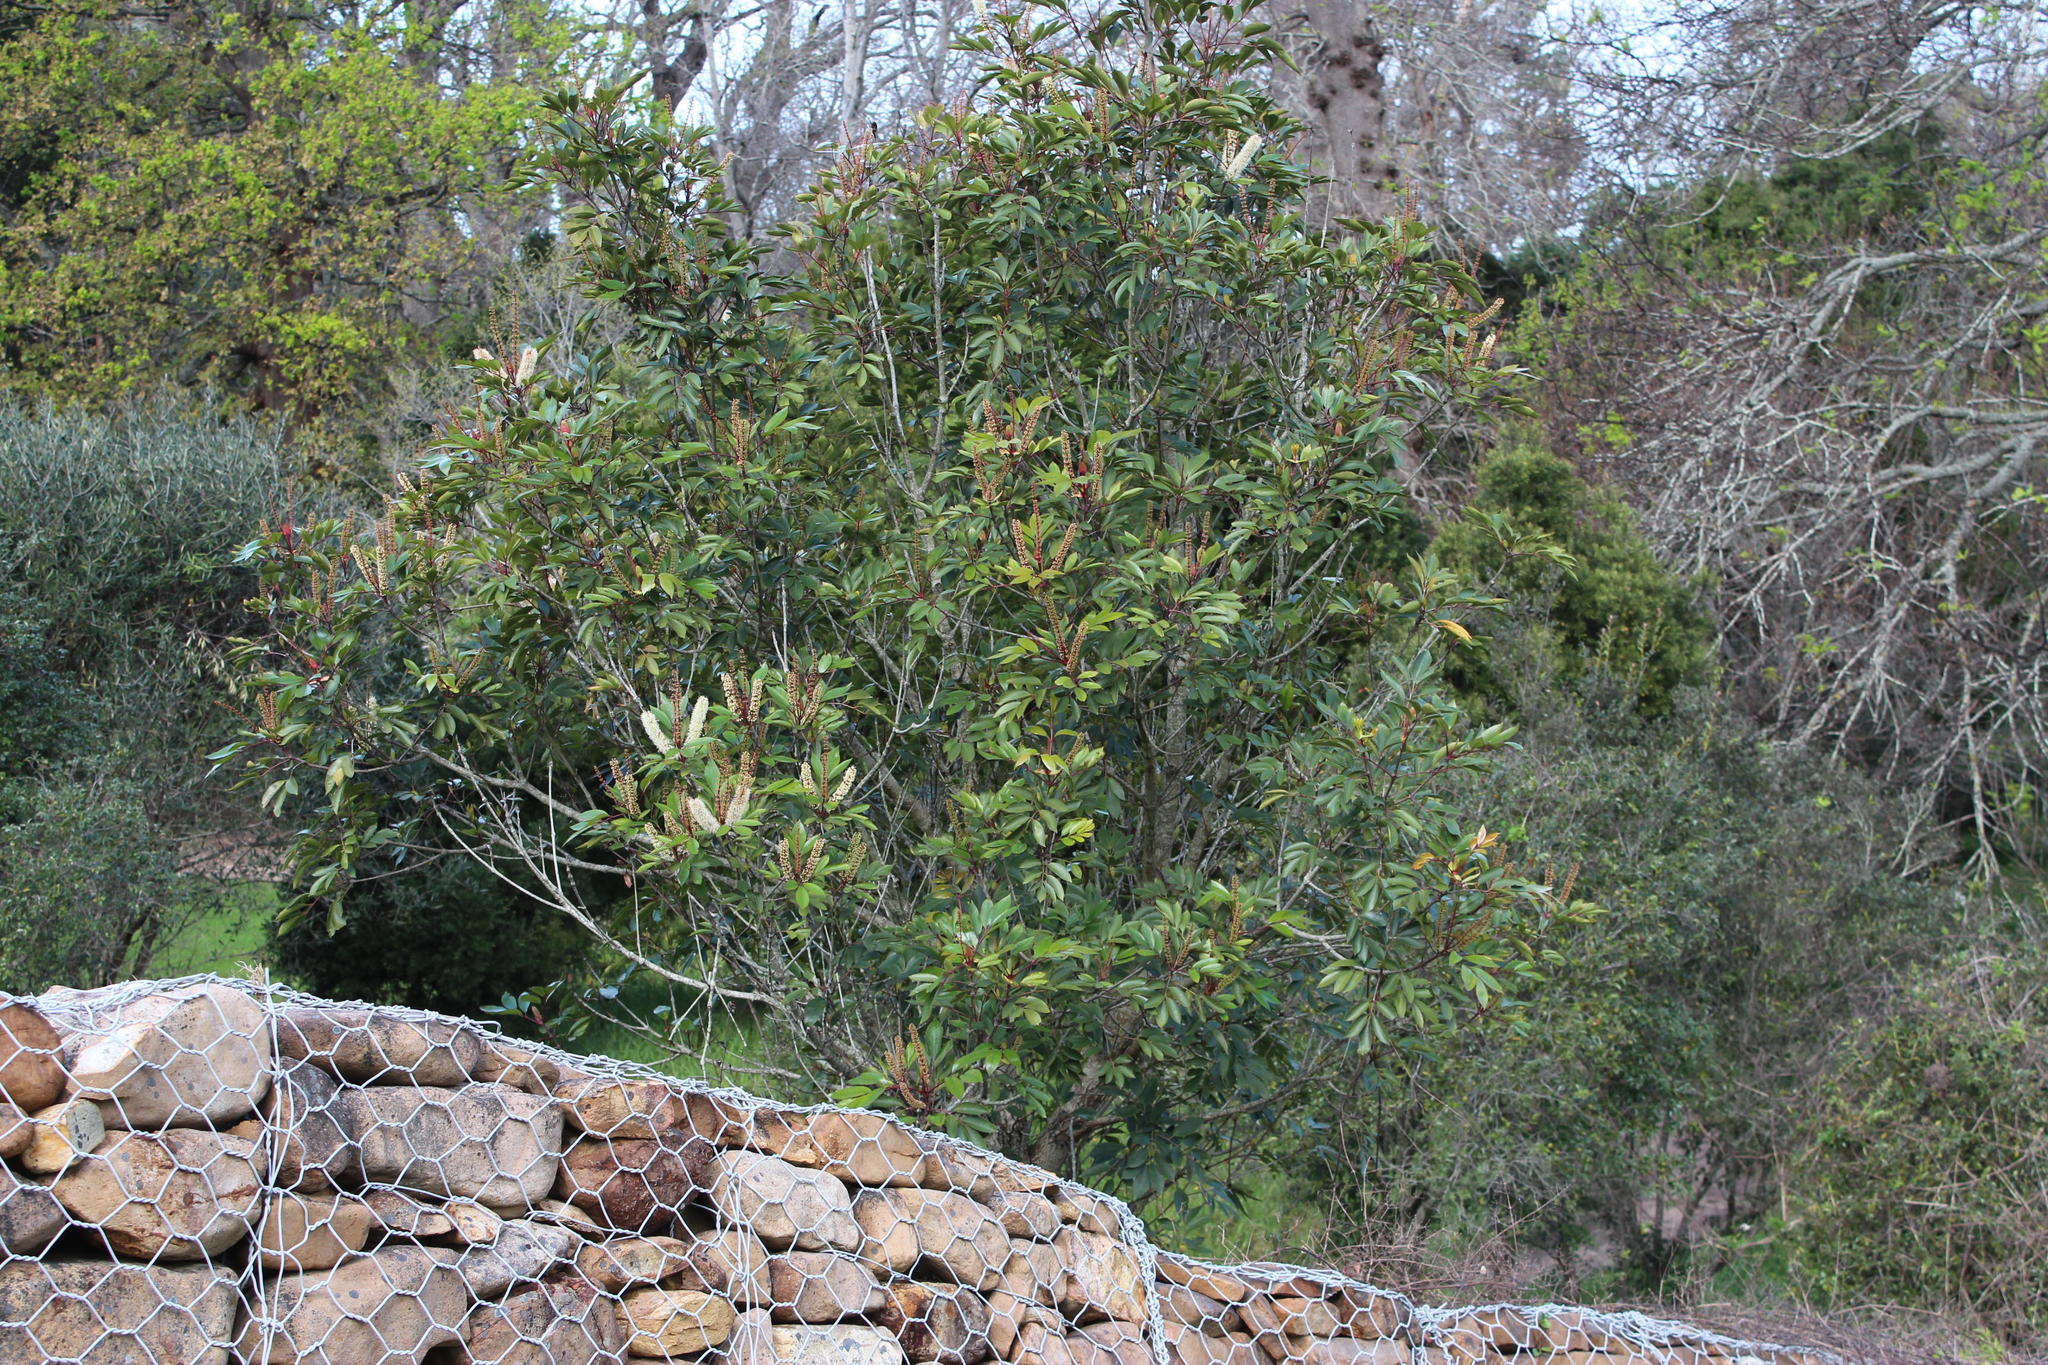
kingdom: Plantae
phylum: Tracheophyta
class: Magnoliopsida
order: Oxalidales
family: Cunoniaceae
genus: Cunonia
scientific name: Cunonia capensis
